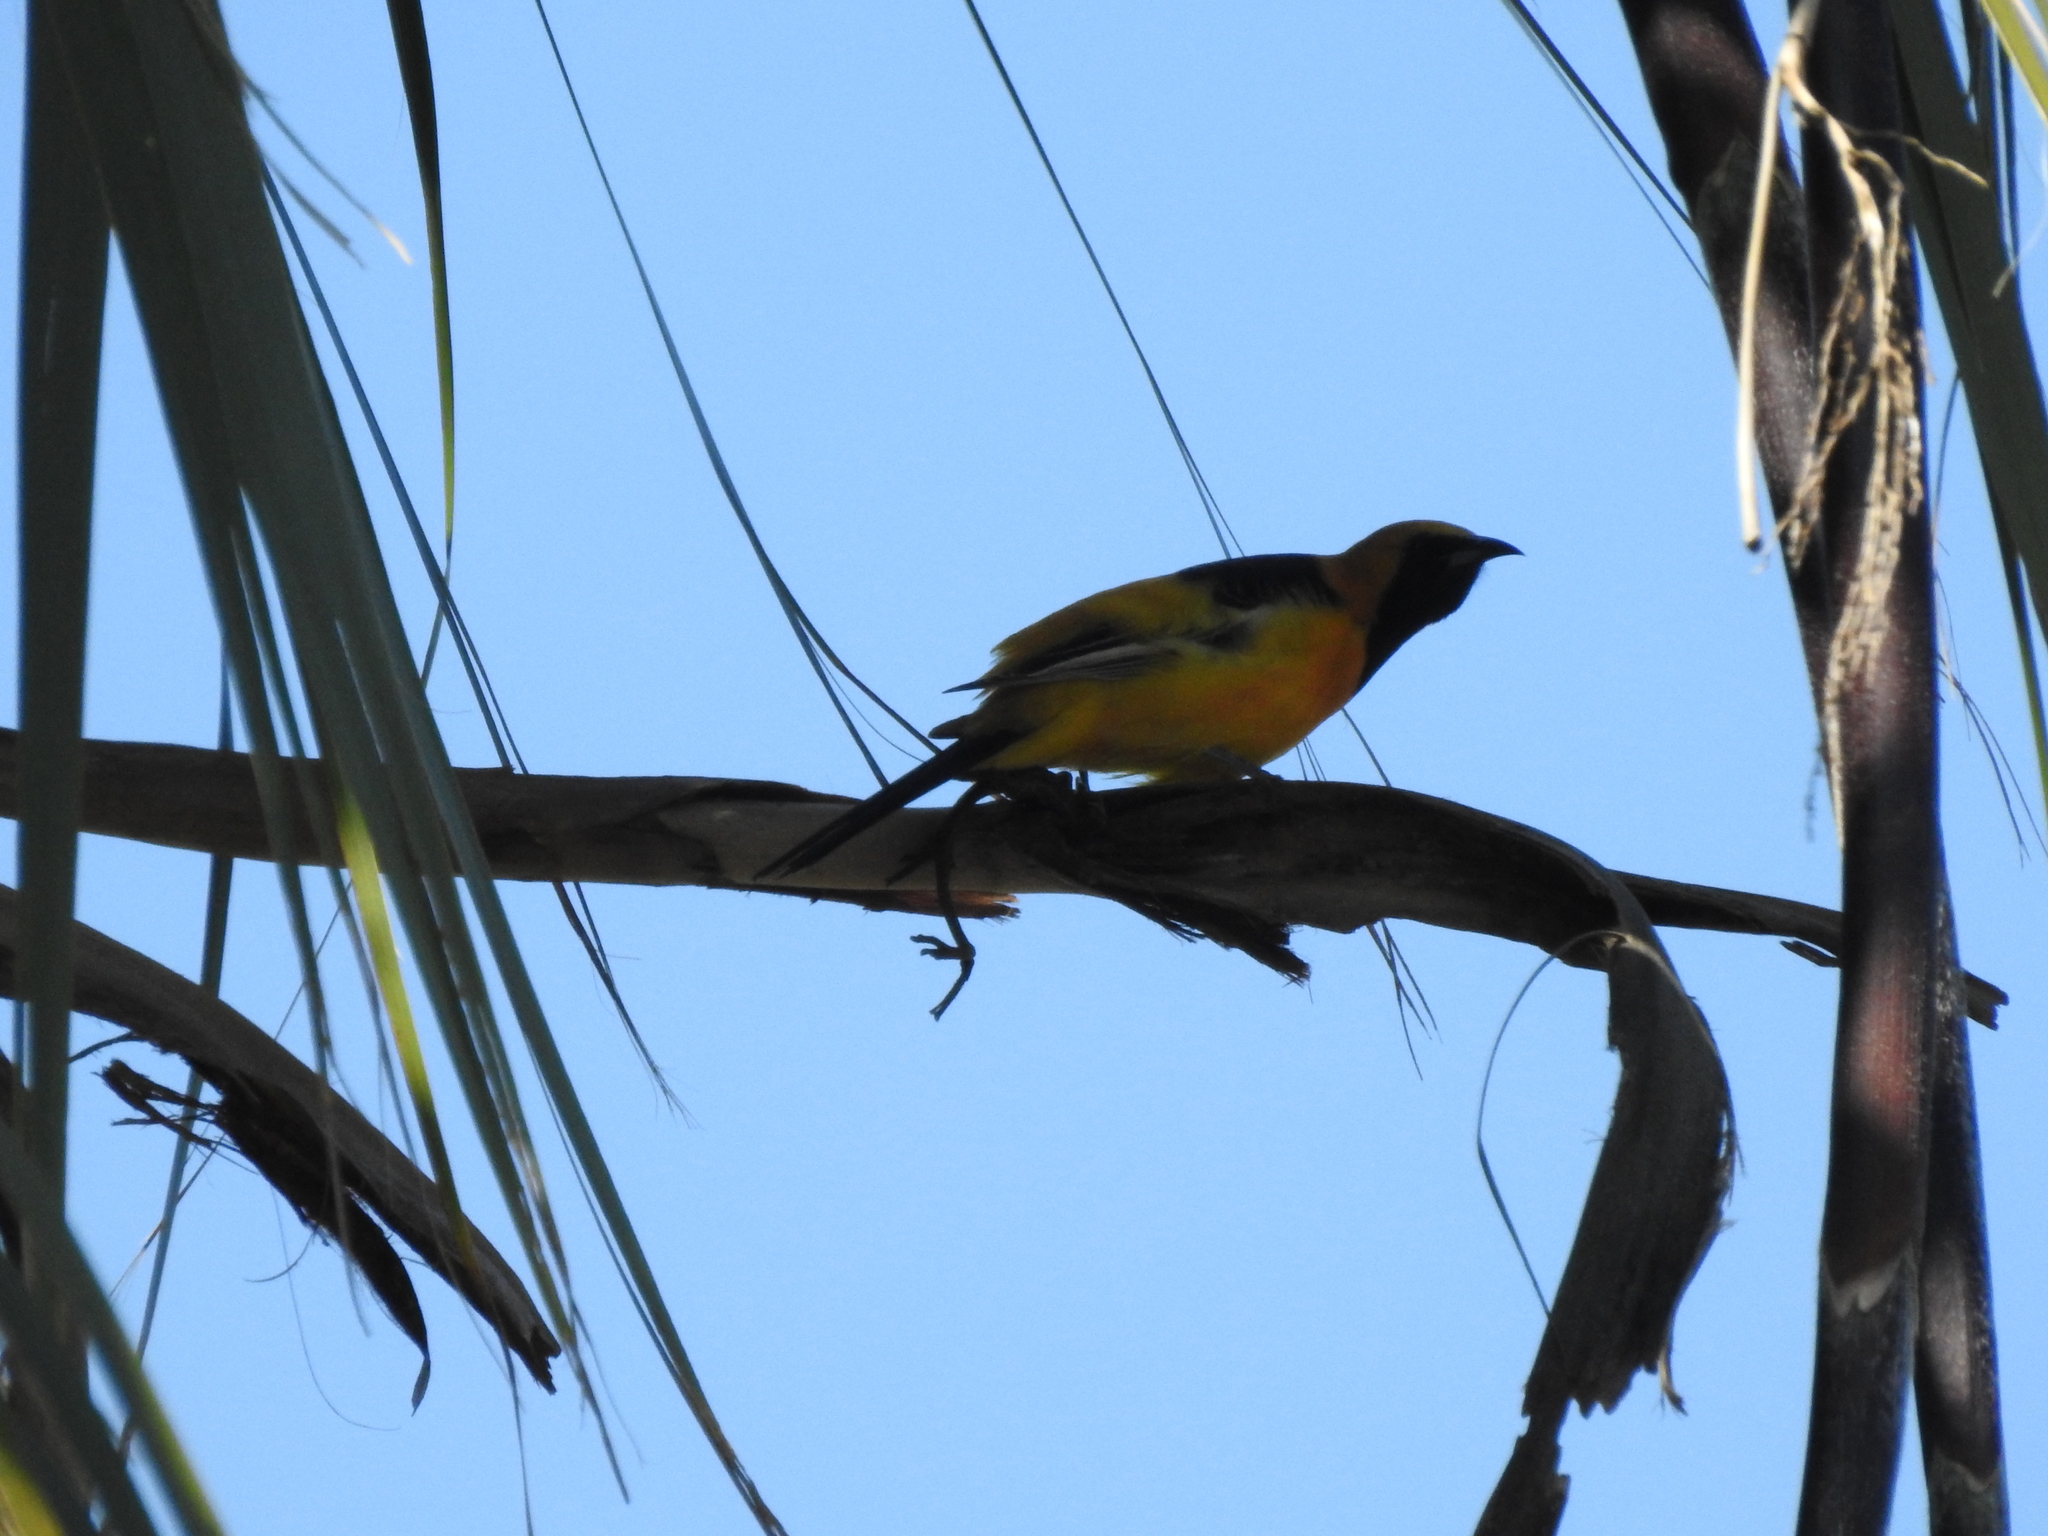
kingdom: Animalia
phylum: Chordata
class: Aves
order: Passeriformes
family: Icteridae
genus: Icterus
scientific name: Icterus cucullatus
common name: Hooded oriole
